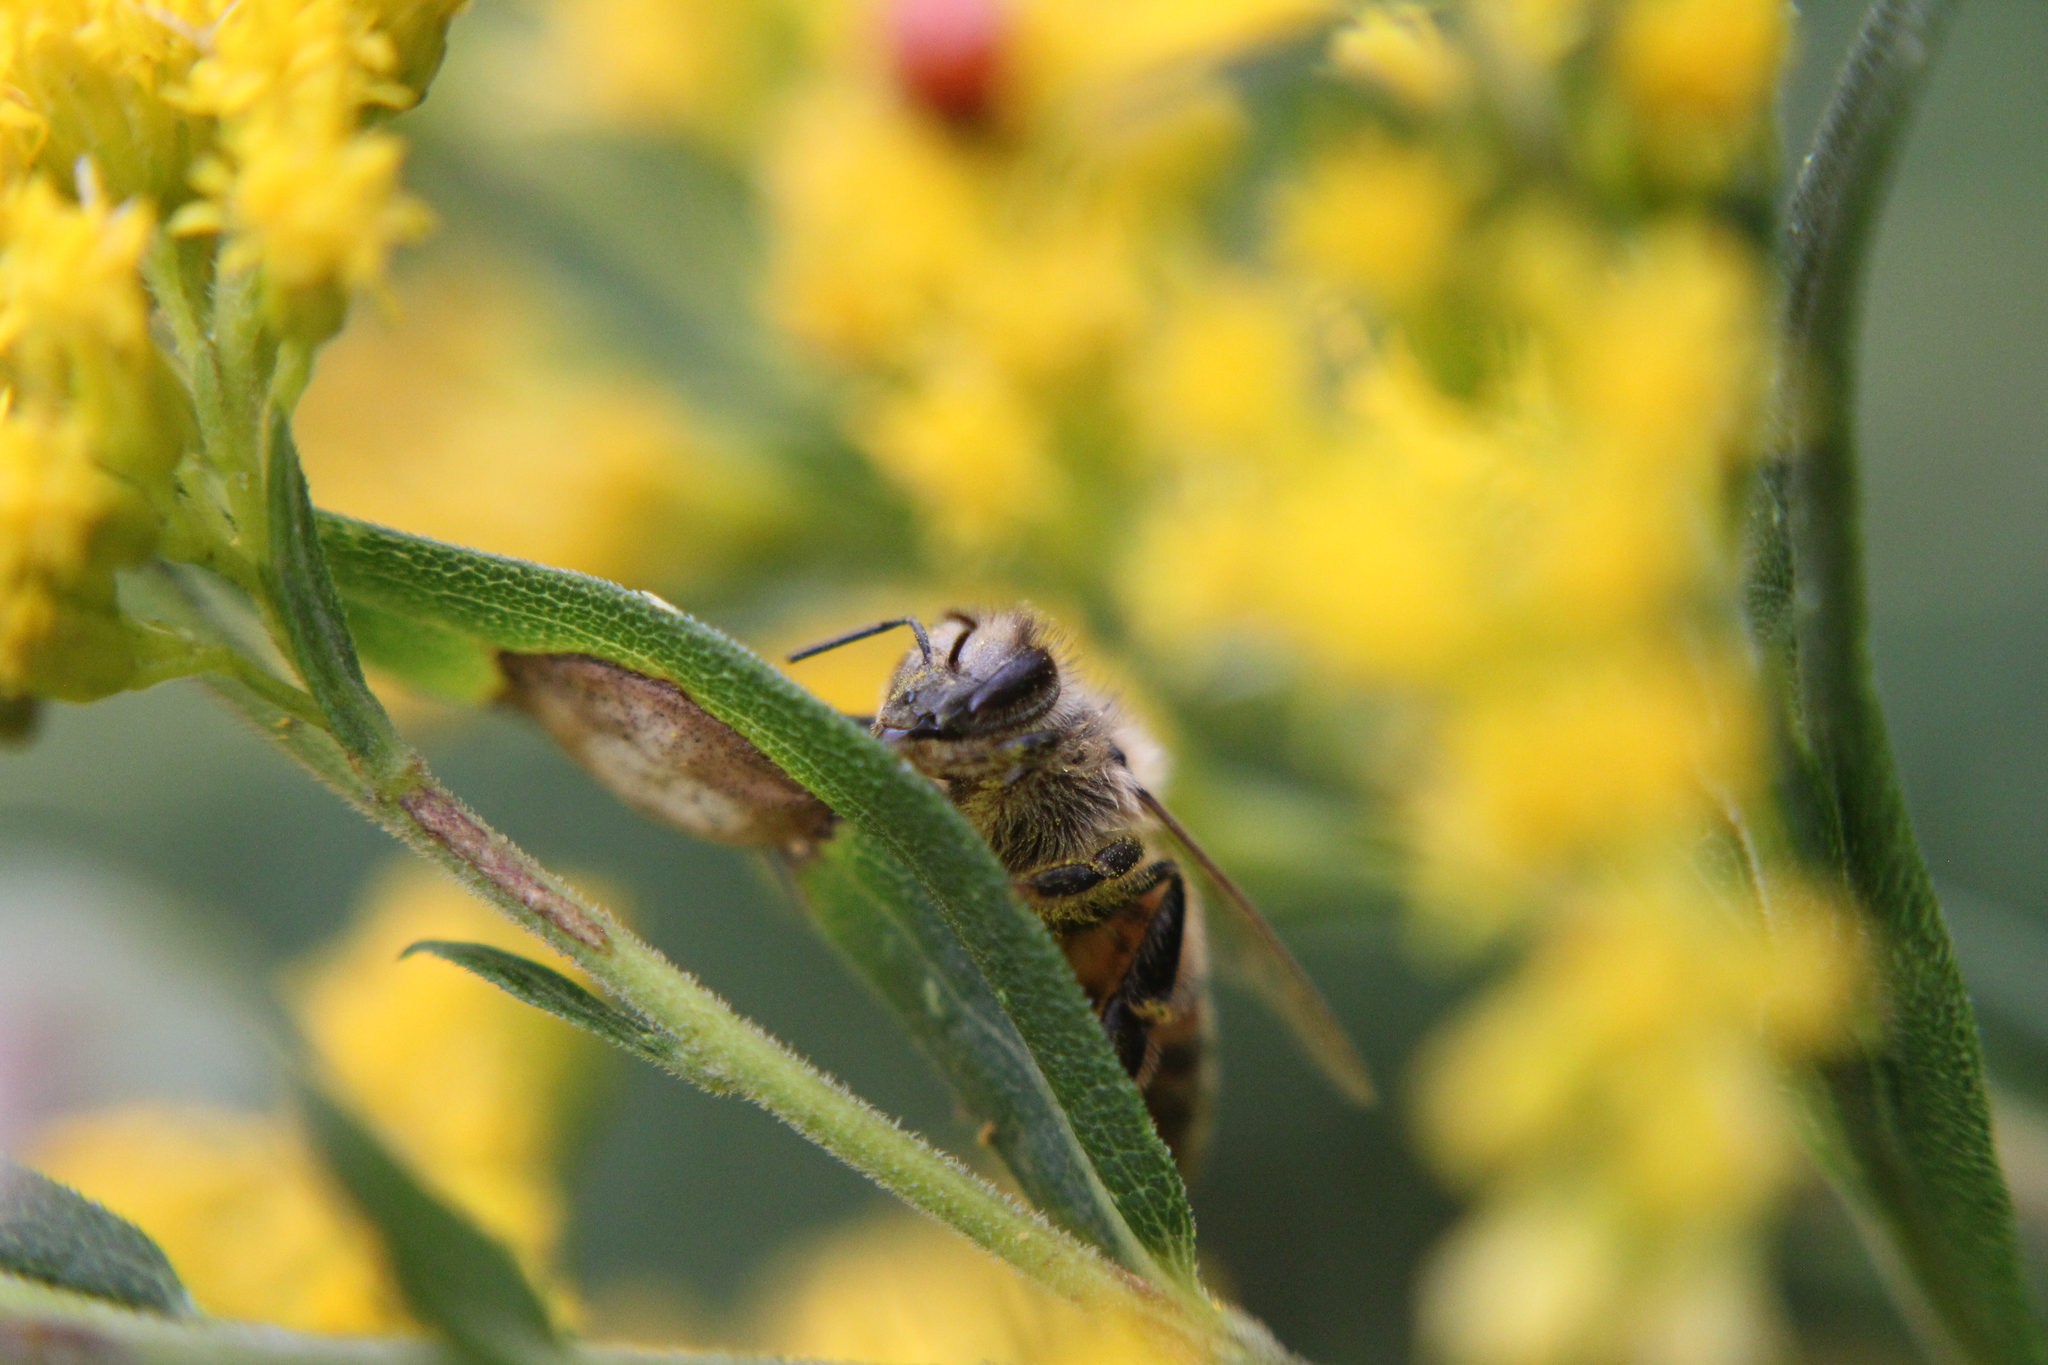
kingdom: Animalia
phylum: Arthropoda
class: Insecta
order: Hymenoptera
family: Apidae
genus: Apis
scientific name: Apis mellifera
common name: Honey bee
